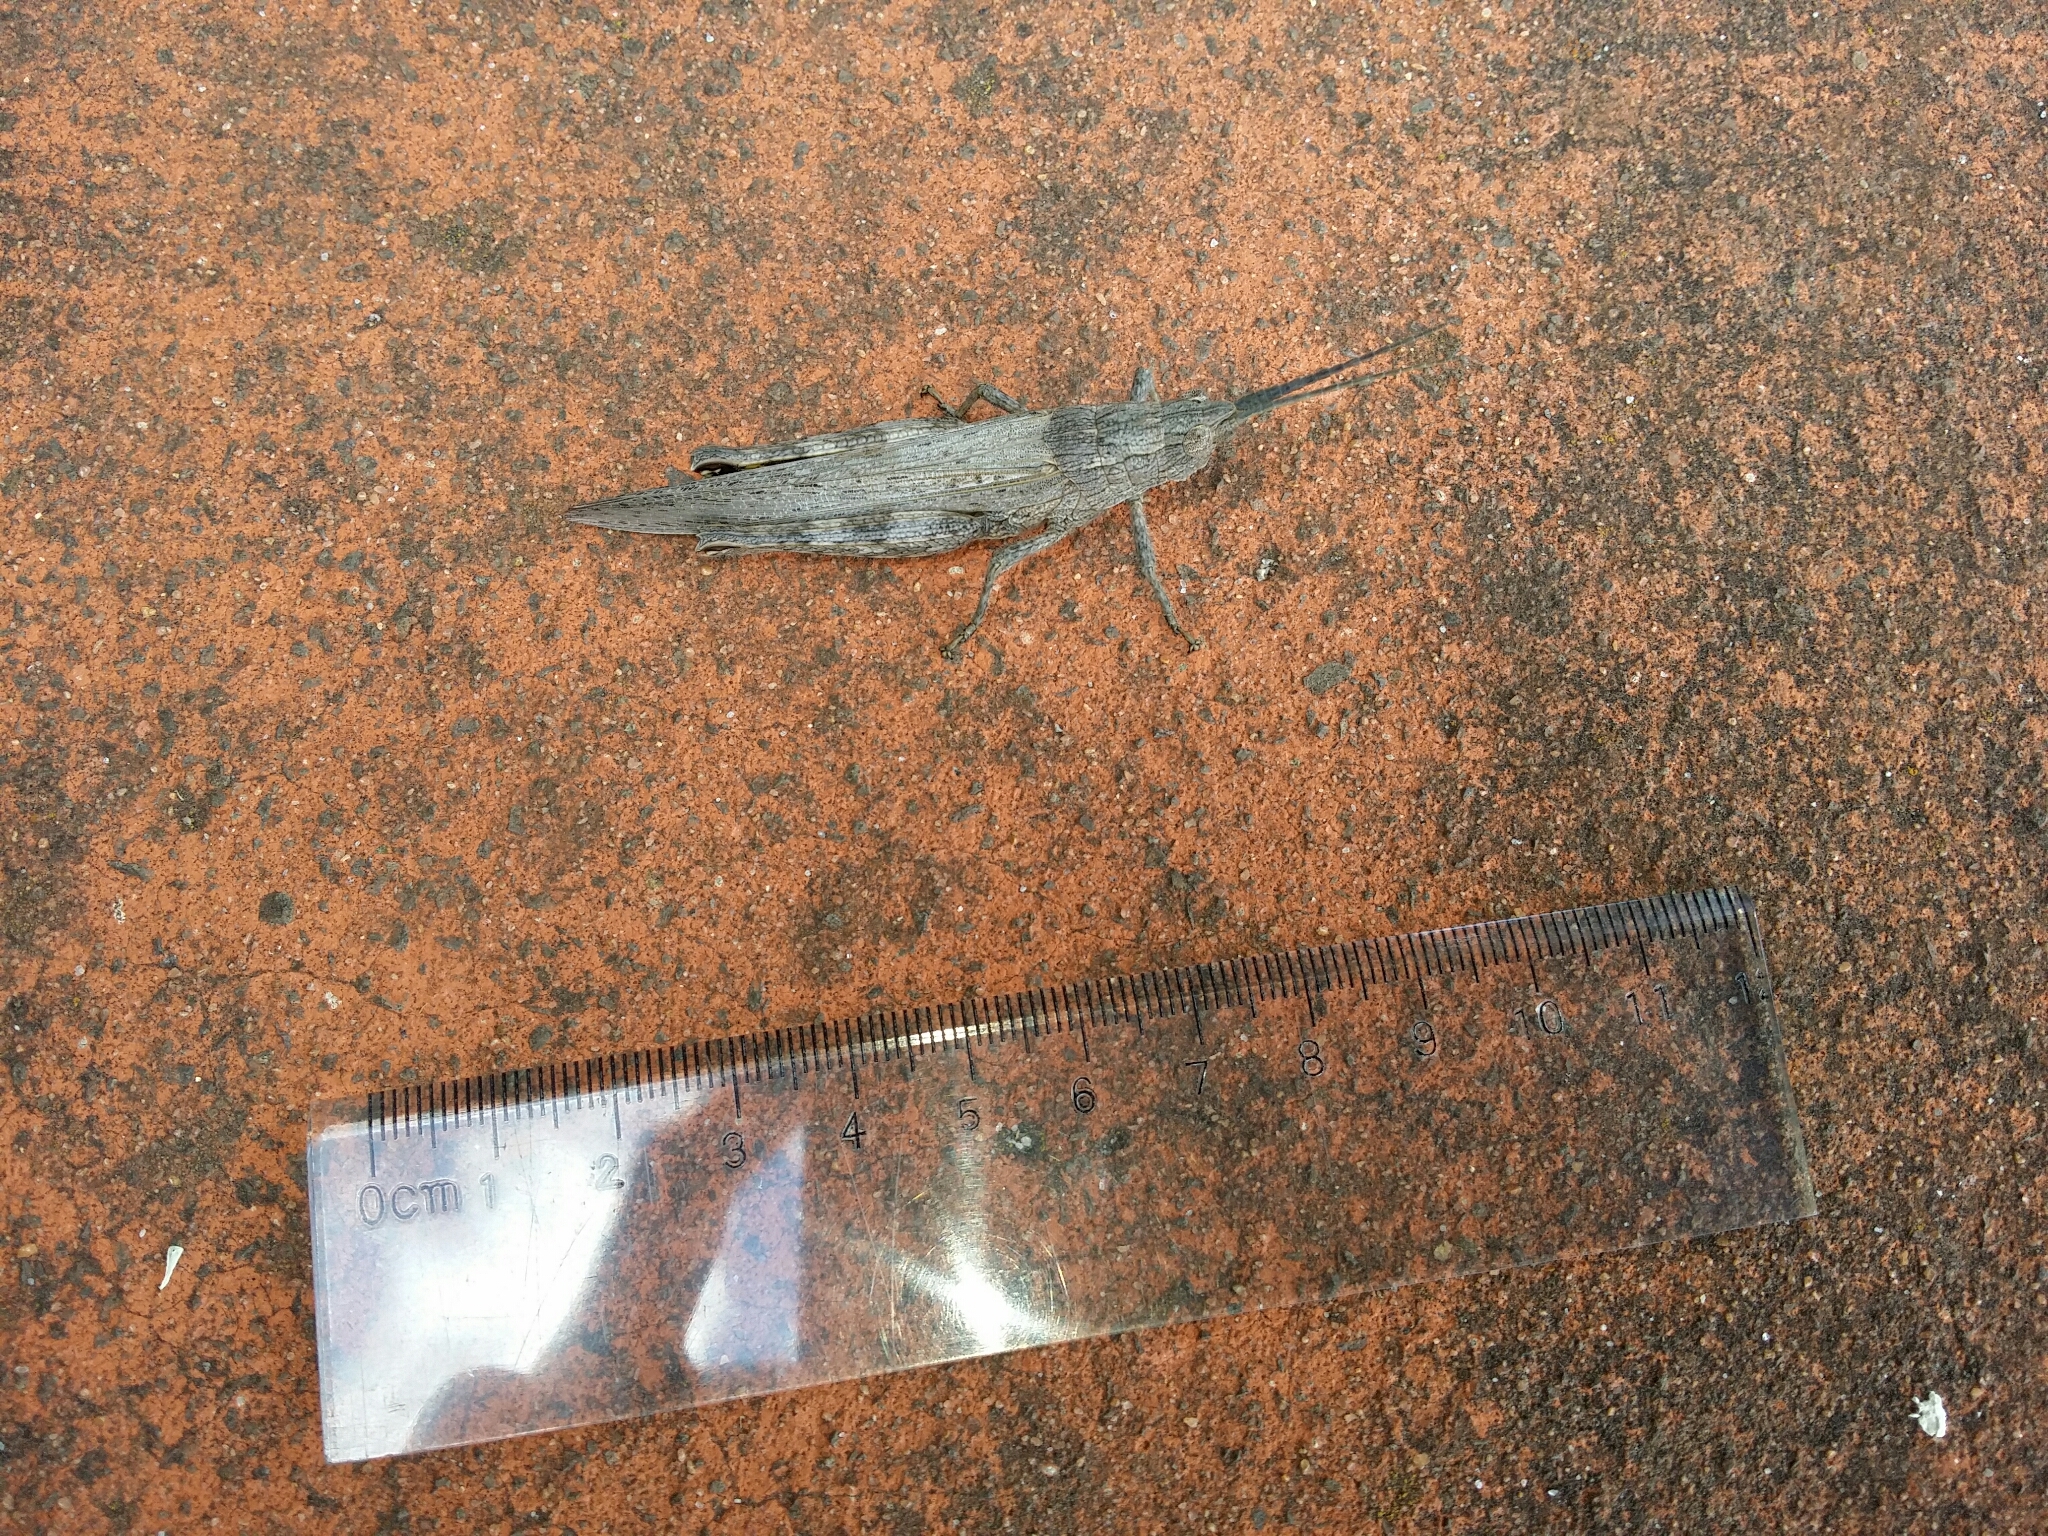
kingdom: Animalia
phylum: Arthropoda
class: Insecta
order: Orthoptera
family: Acrididae
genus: Coryphistes
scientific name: Coryphistes ruricola
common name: Bark-mimicking grasshopper
